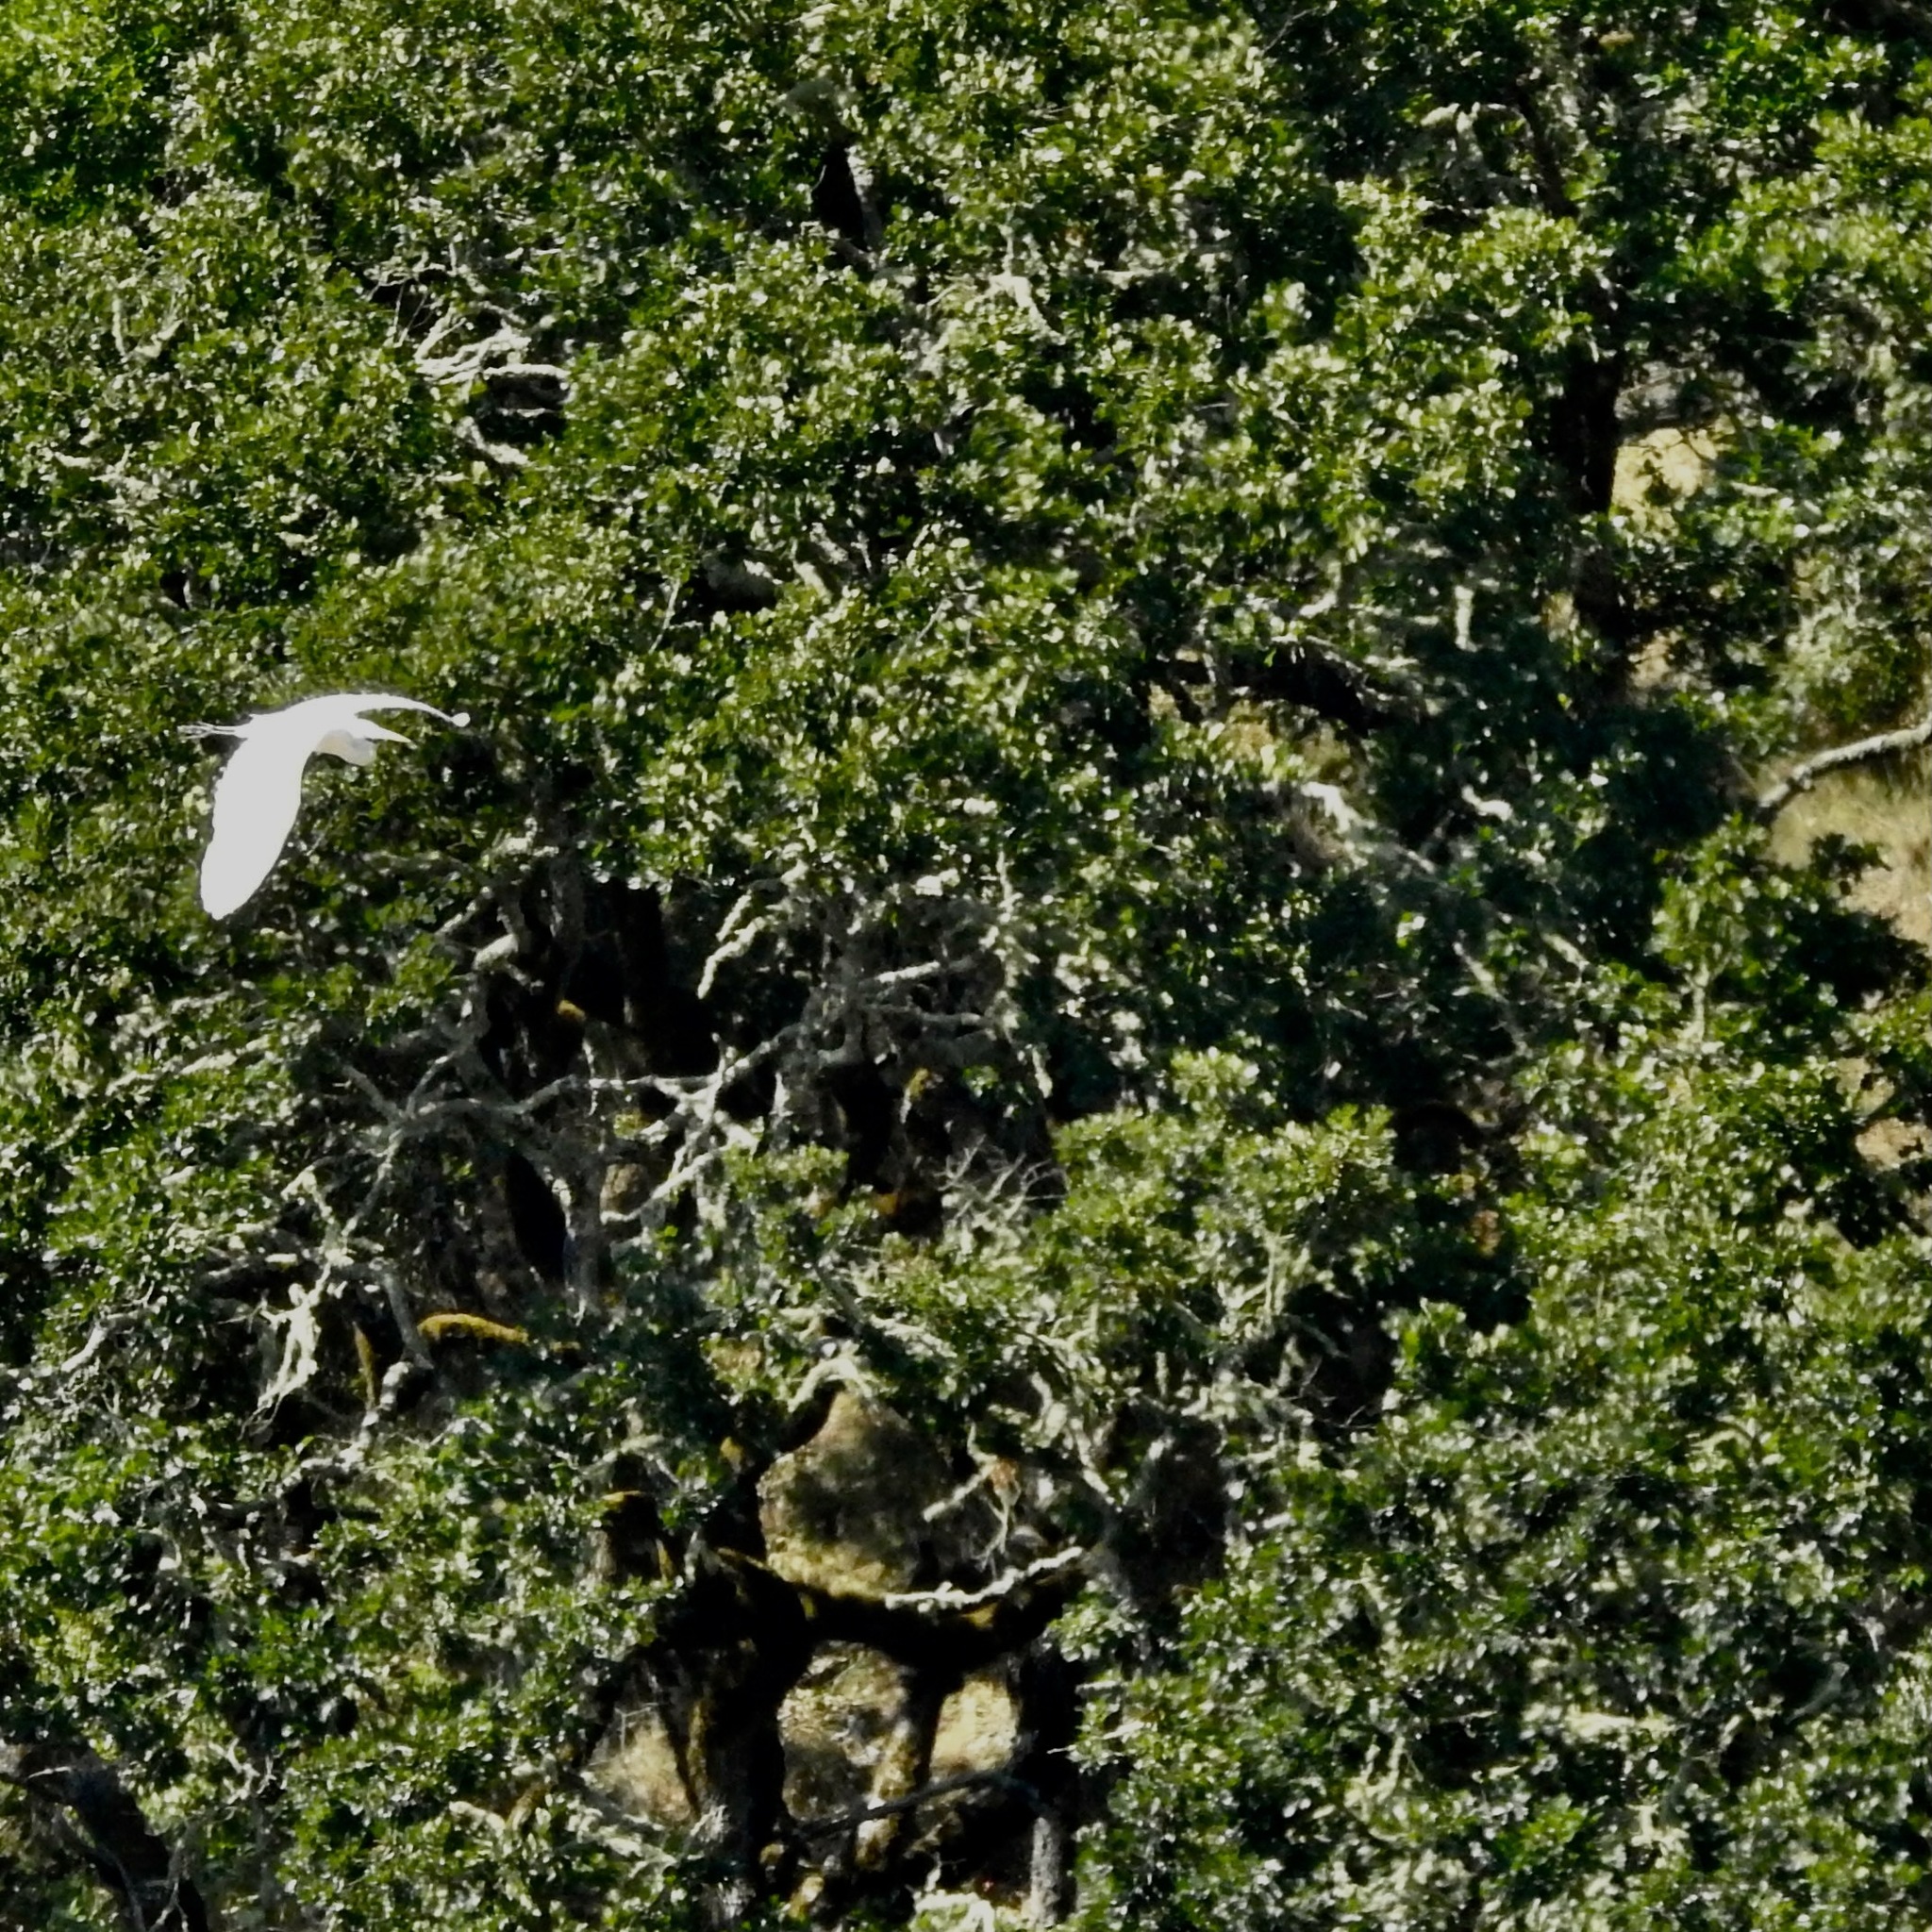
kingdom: Animalia
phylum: Chordata
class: Aves
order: Pelecaniformes
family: Ardeidae
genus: Ardea
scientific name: Ardea alba
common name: Great egret
